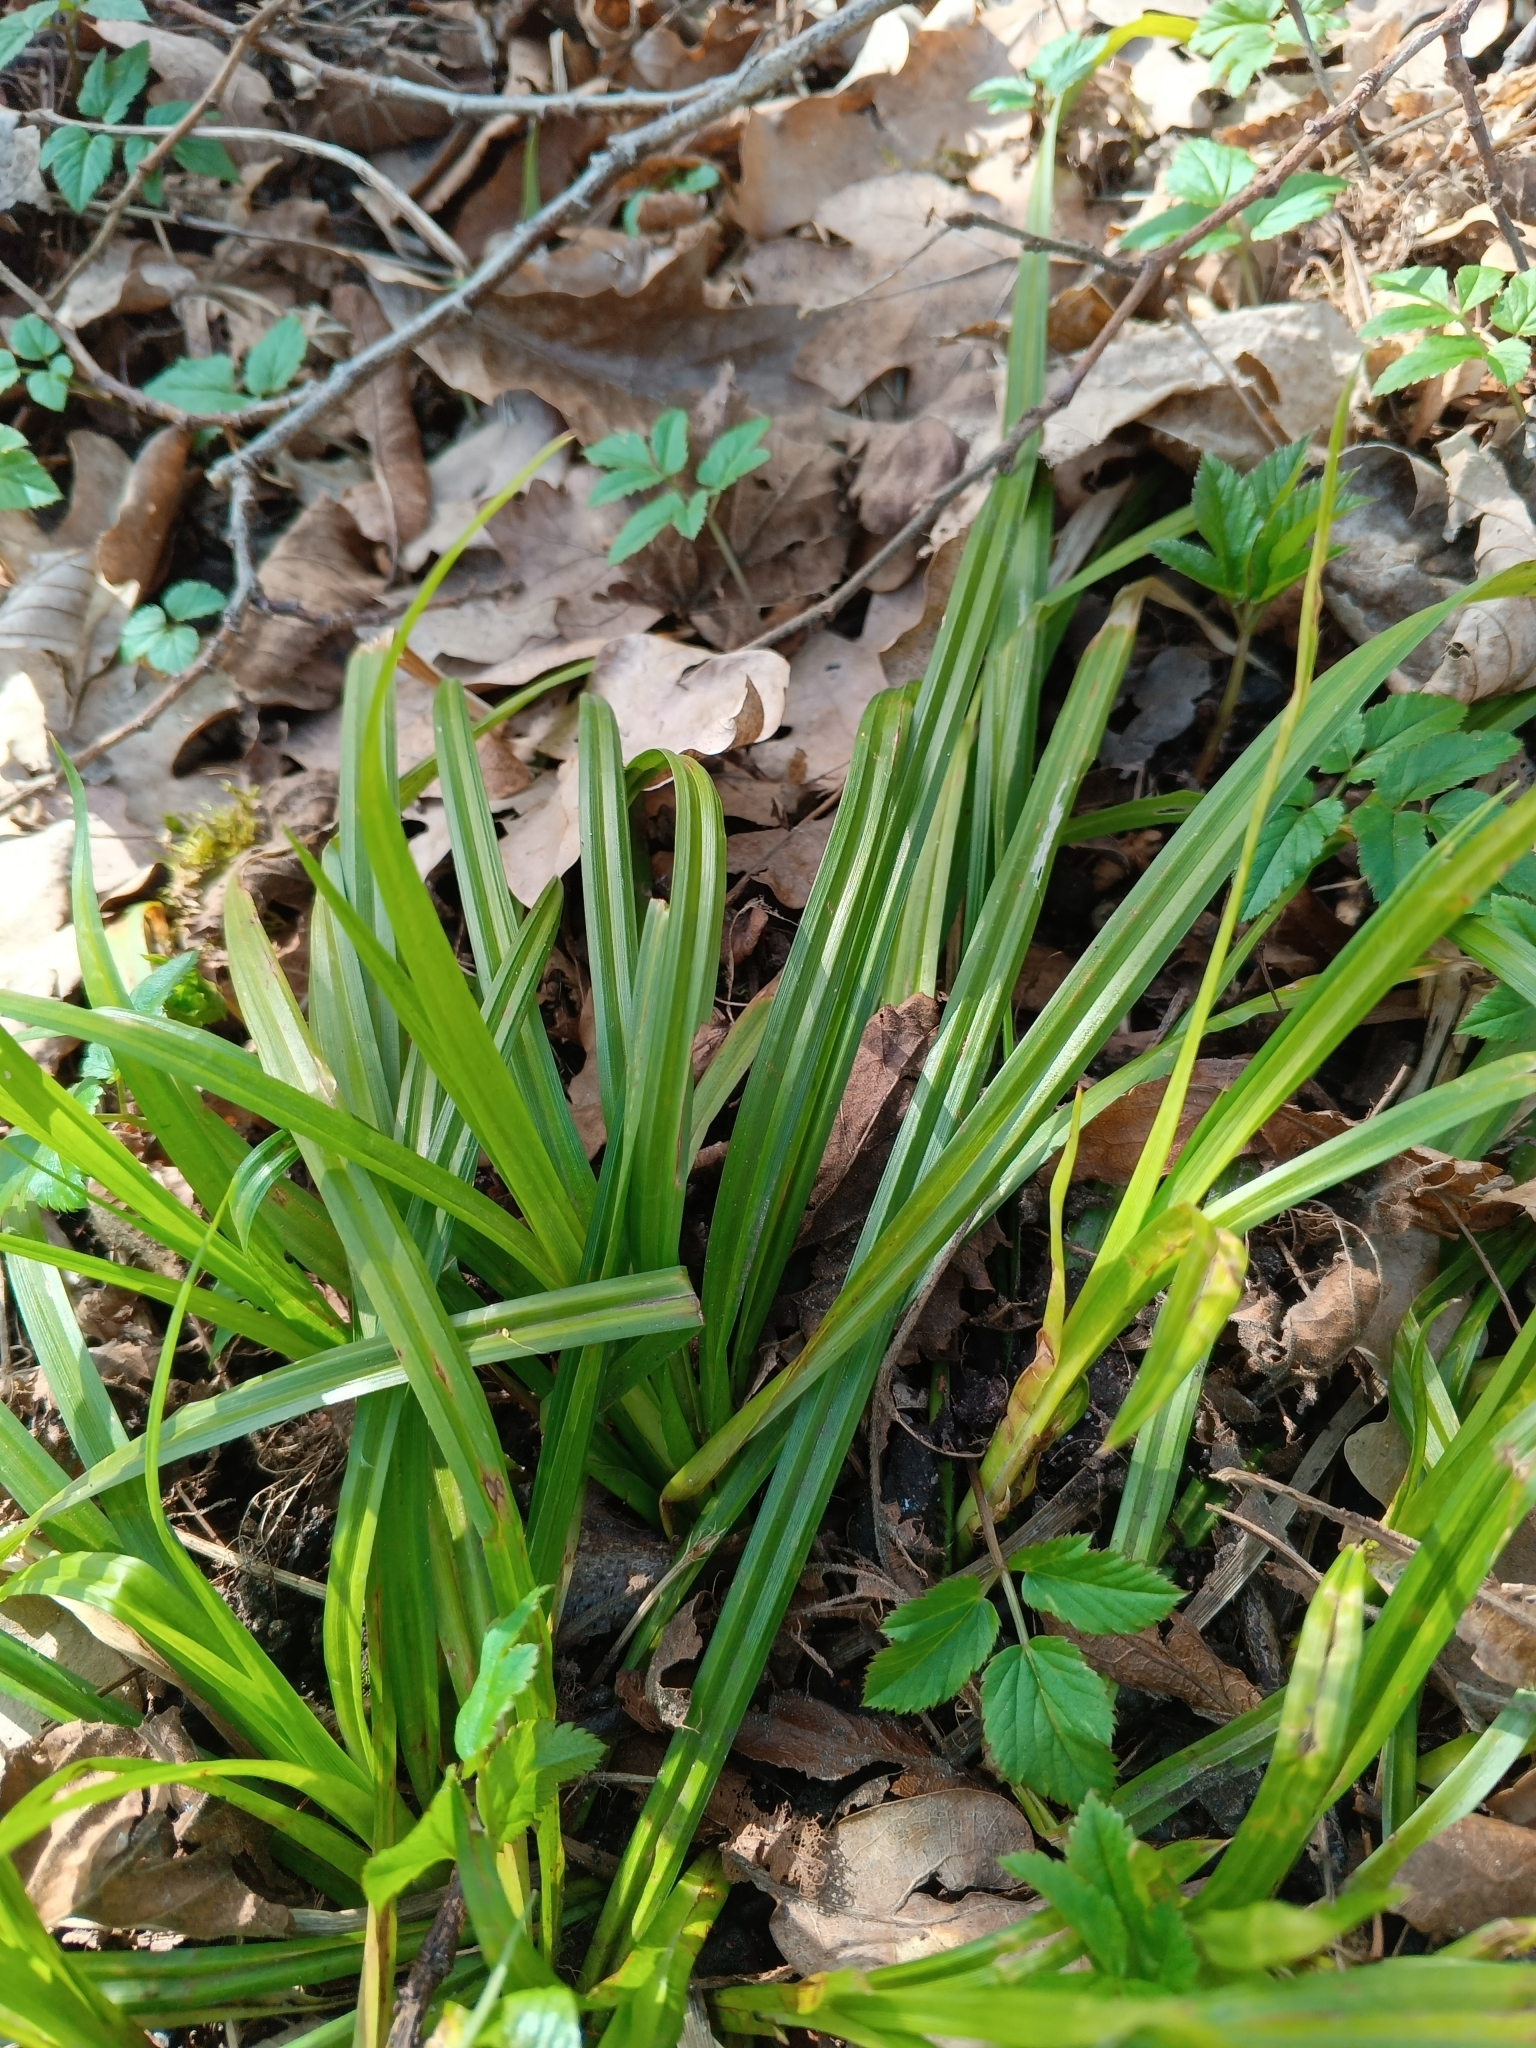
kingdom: Plantae
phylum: Tracheophyta
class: Liliopsida
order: Poales
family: Cyperaceae
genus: Carex
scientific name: Carex sylvatica
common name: Wood-sedge
